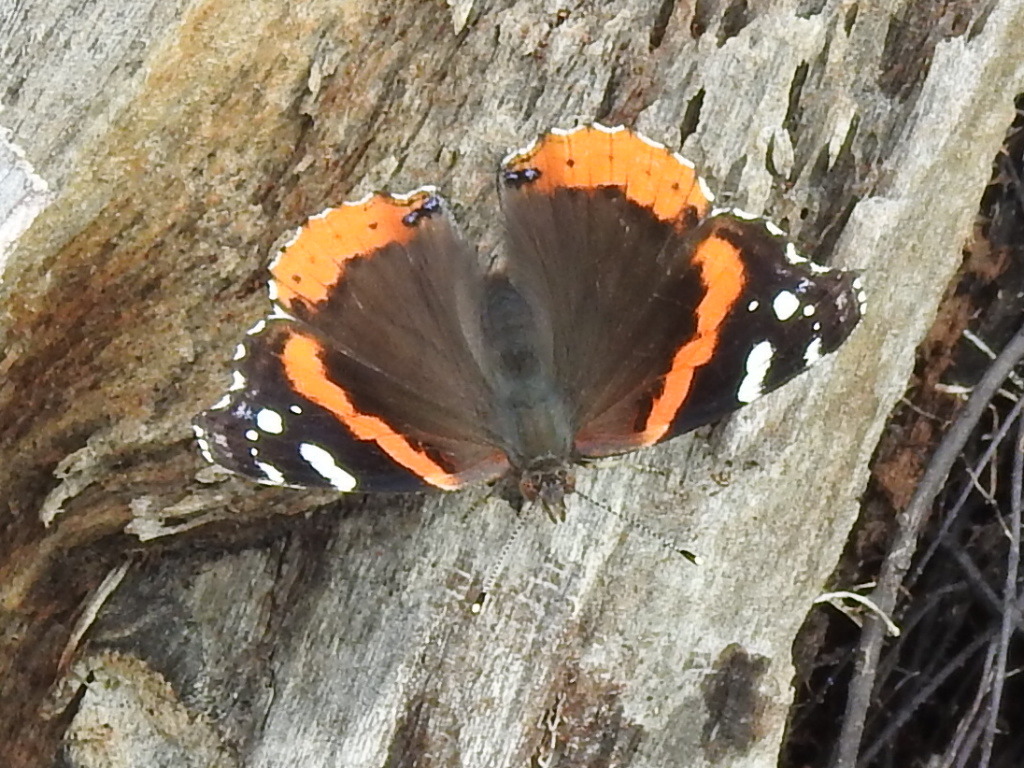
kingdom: Animalia
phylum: Arthropoda
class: Insecta
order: Lepidoptera
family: Nymphalidae
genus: Vanessa
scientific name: Vanessa atalanta
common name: Red admiral
